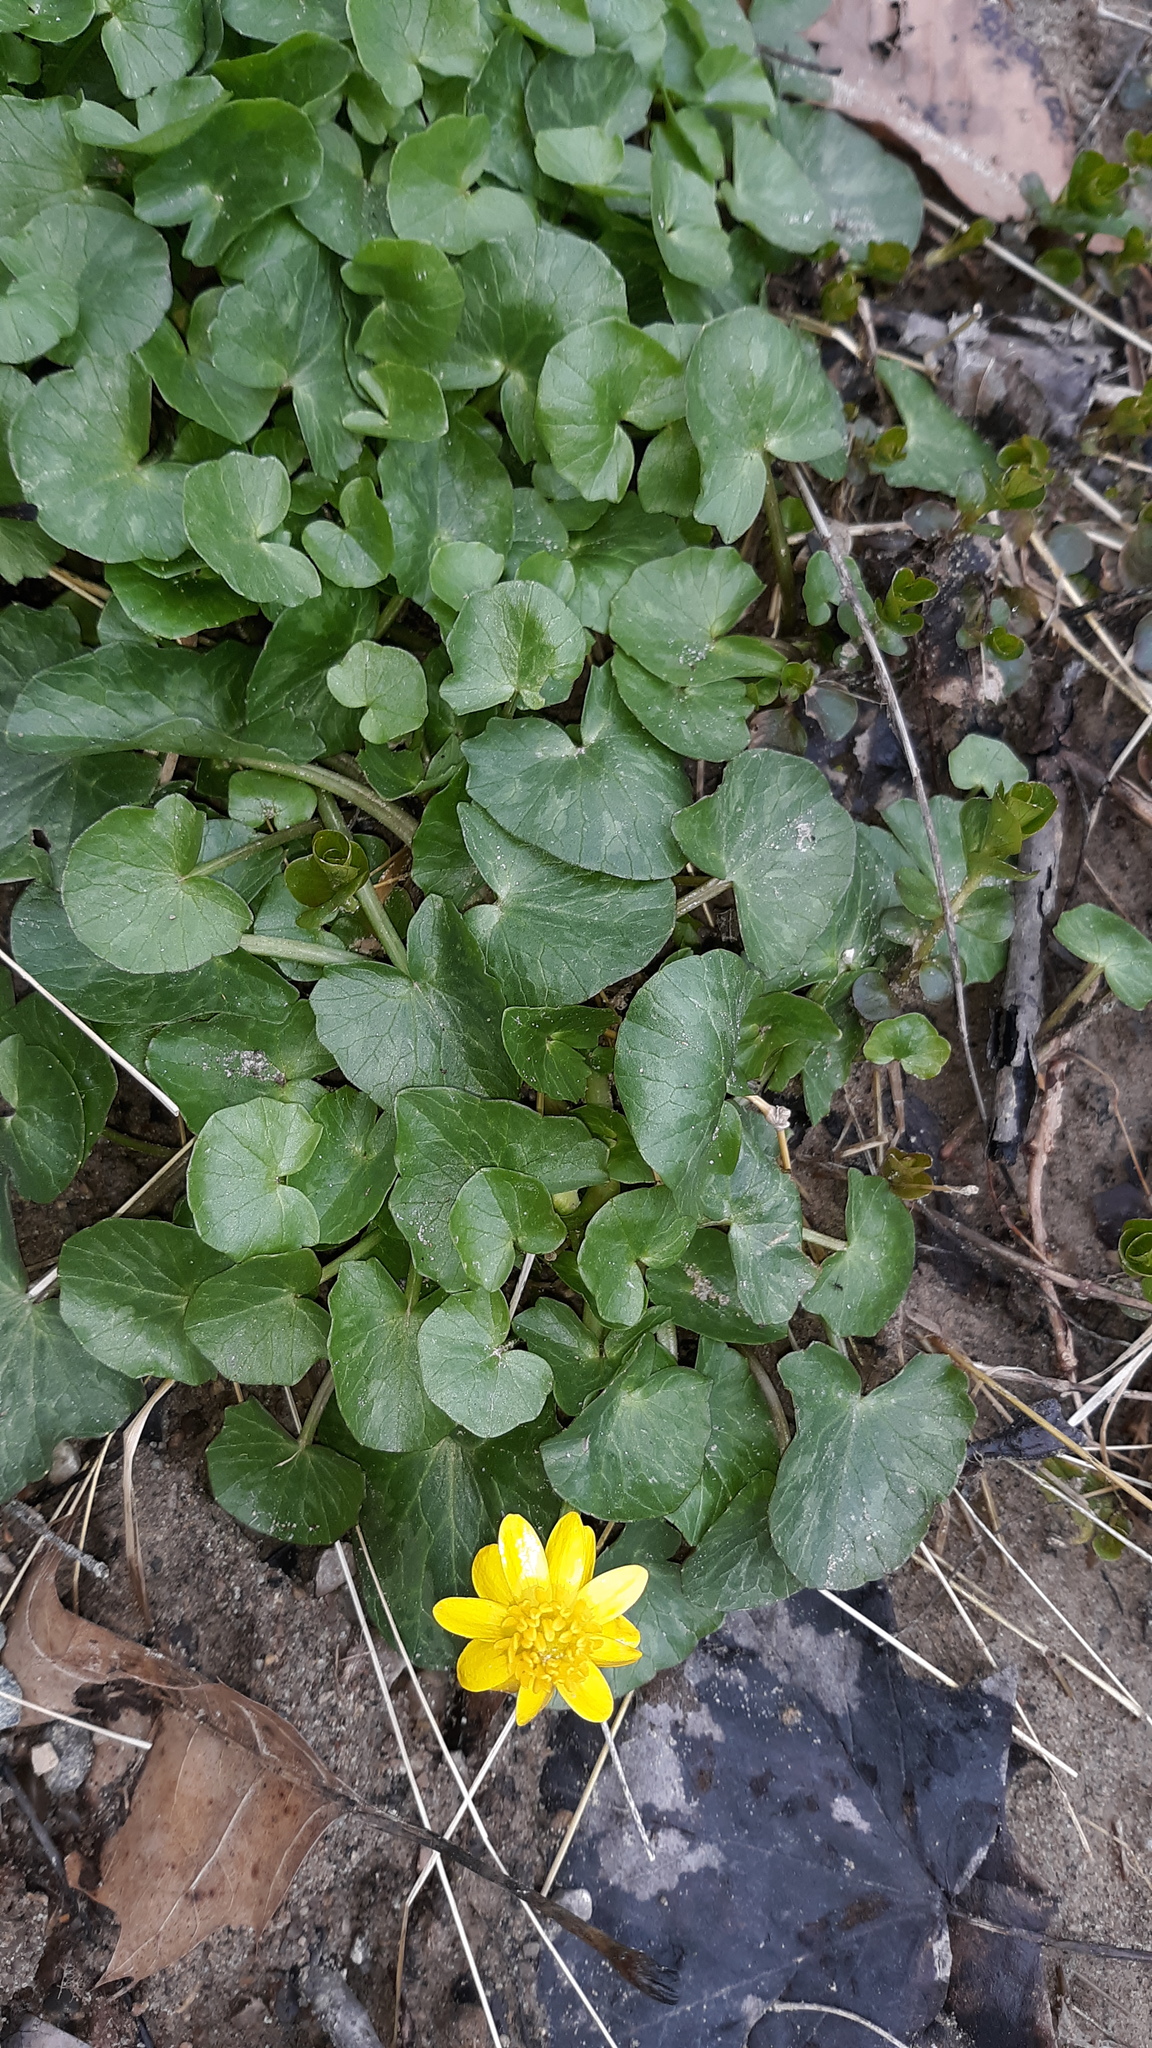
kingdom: Plantae
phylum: Tracheophyta
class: Magnoliopsida
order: Ranunculales
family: Ranunculaceae
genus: Ficaria
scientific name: Ficaria verna
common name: Lesser celandine
